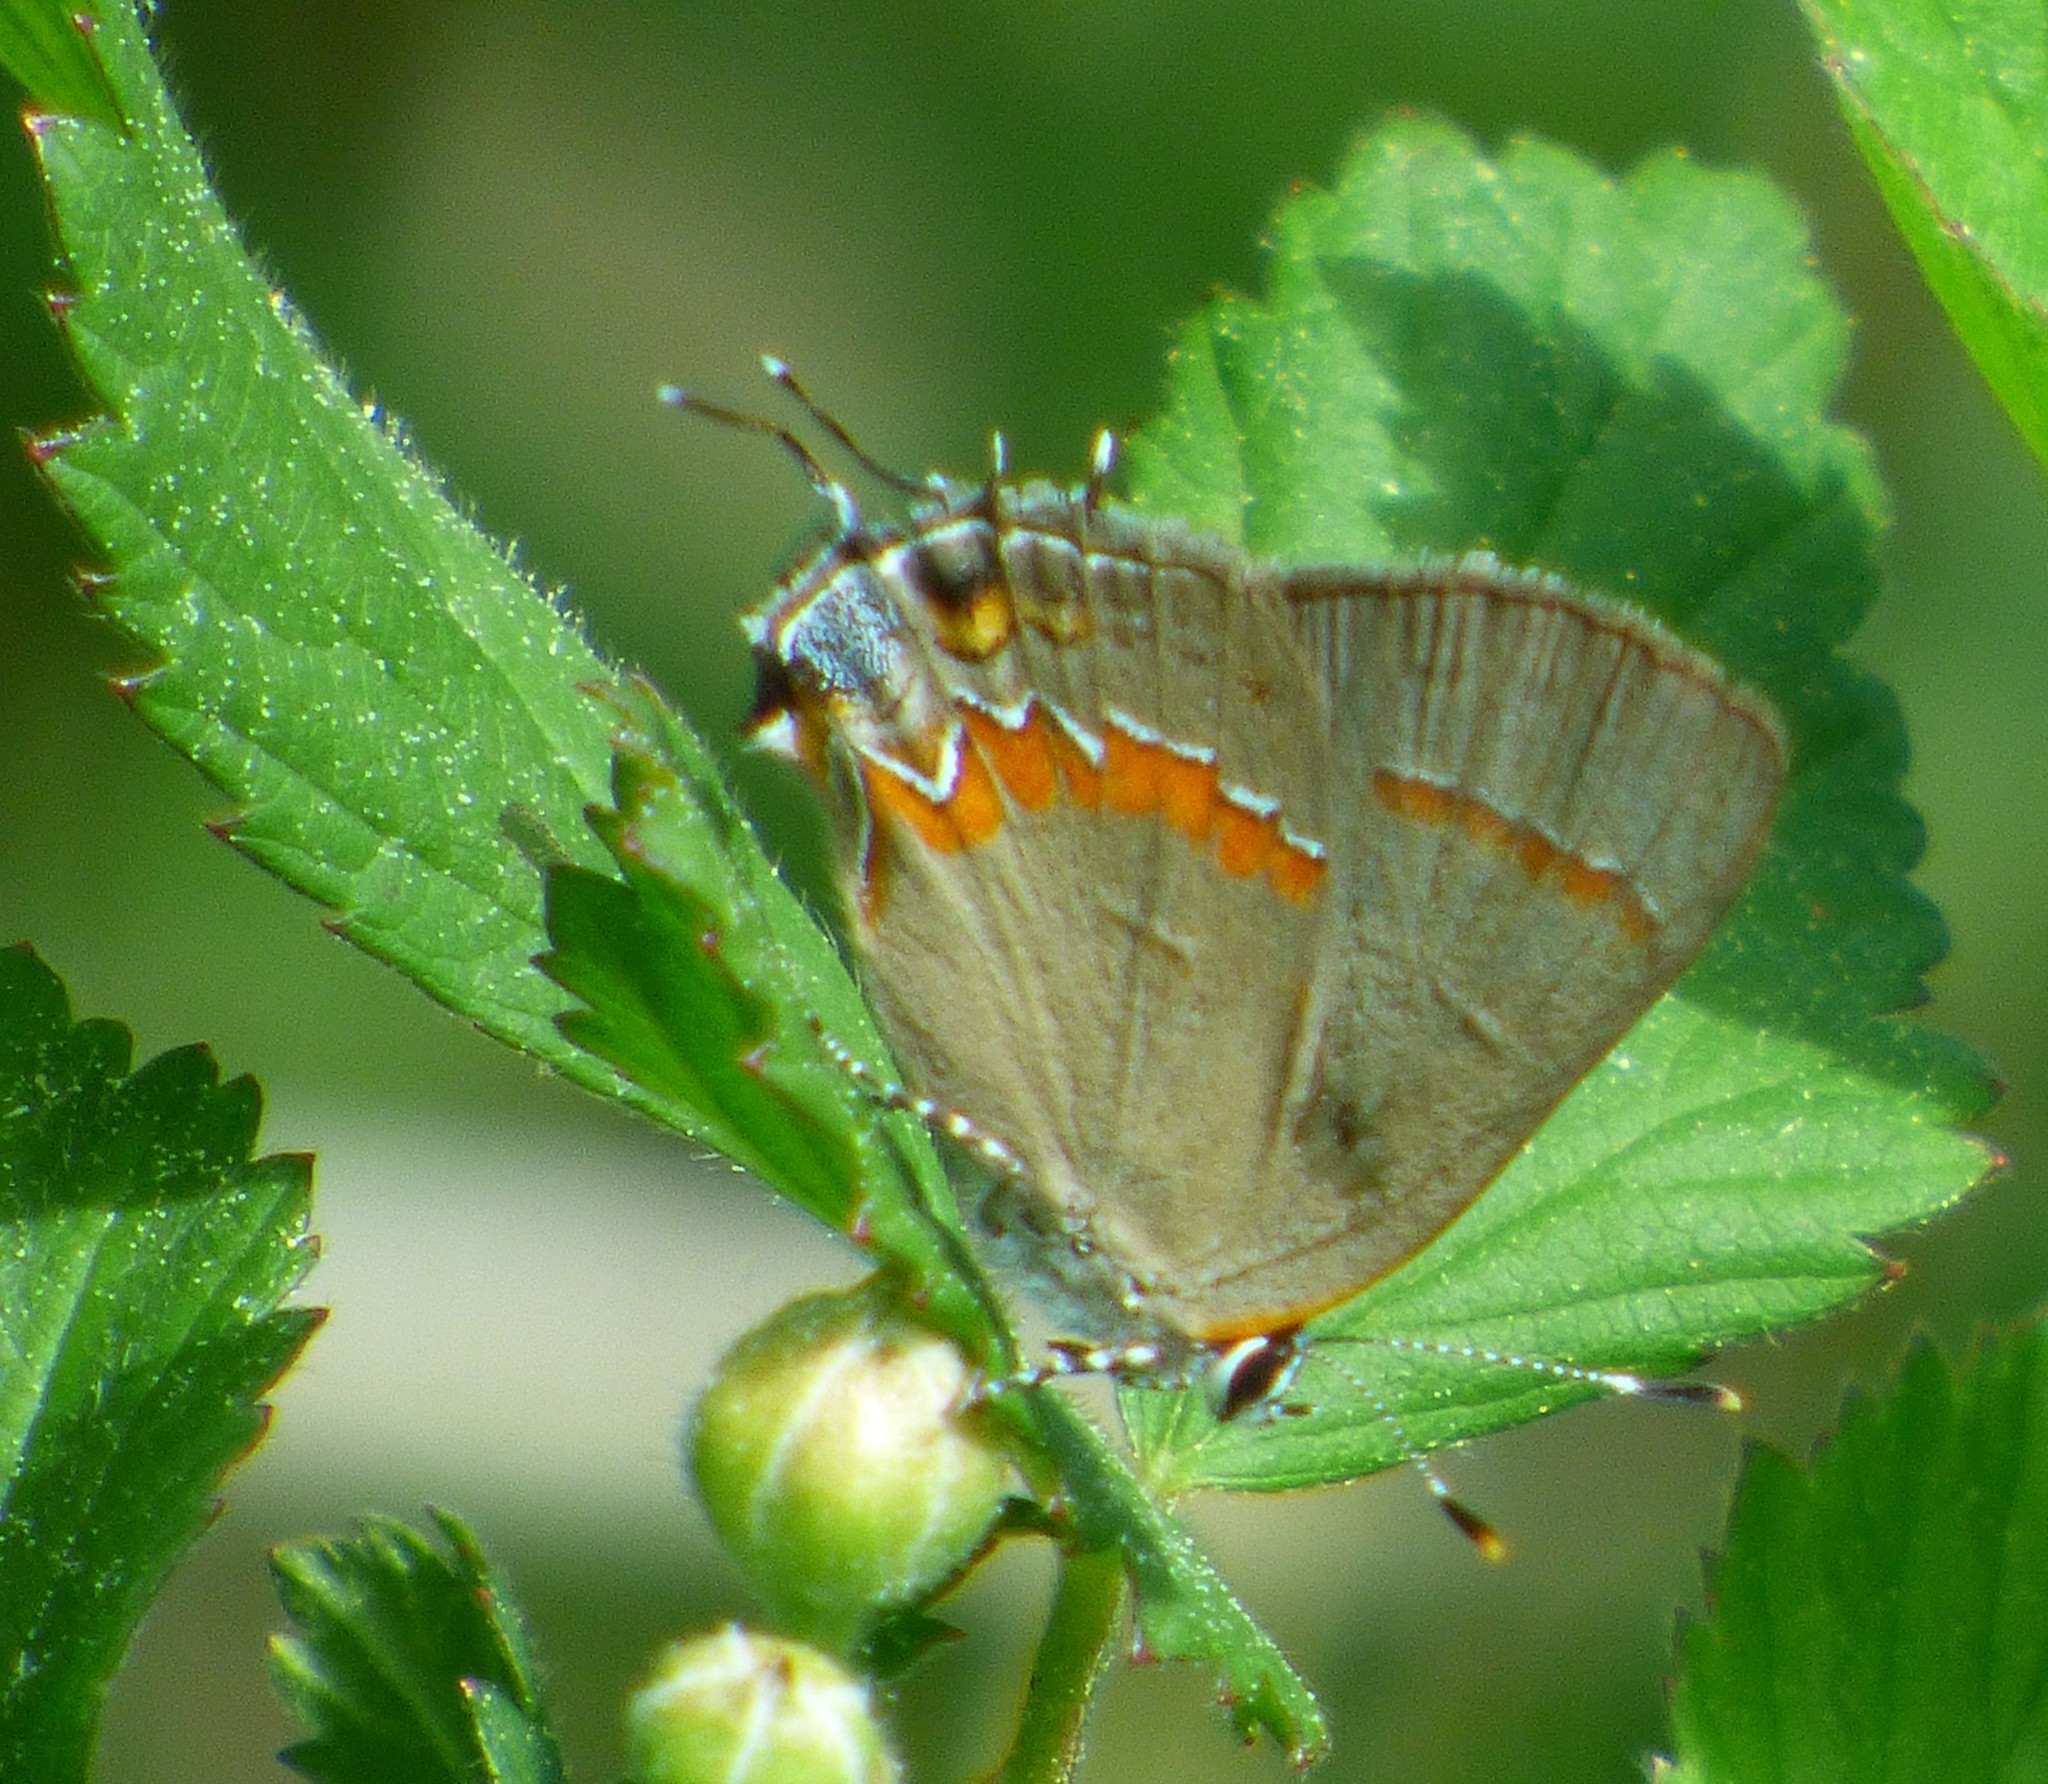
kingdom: Animalia
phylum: Arthropoda
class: Insecta
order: Lepidoptera
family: Lycaenidae
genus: Calycopis
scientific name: Calycopis cecrops
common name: Red-banded hairstreak
